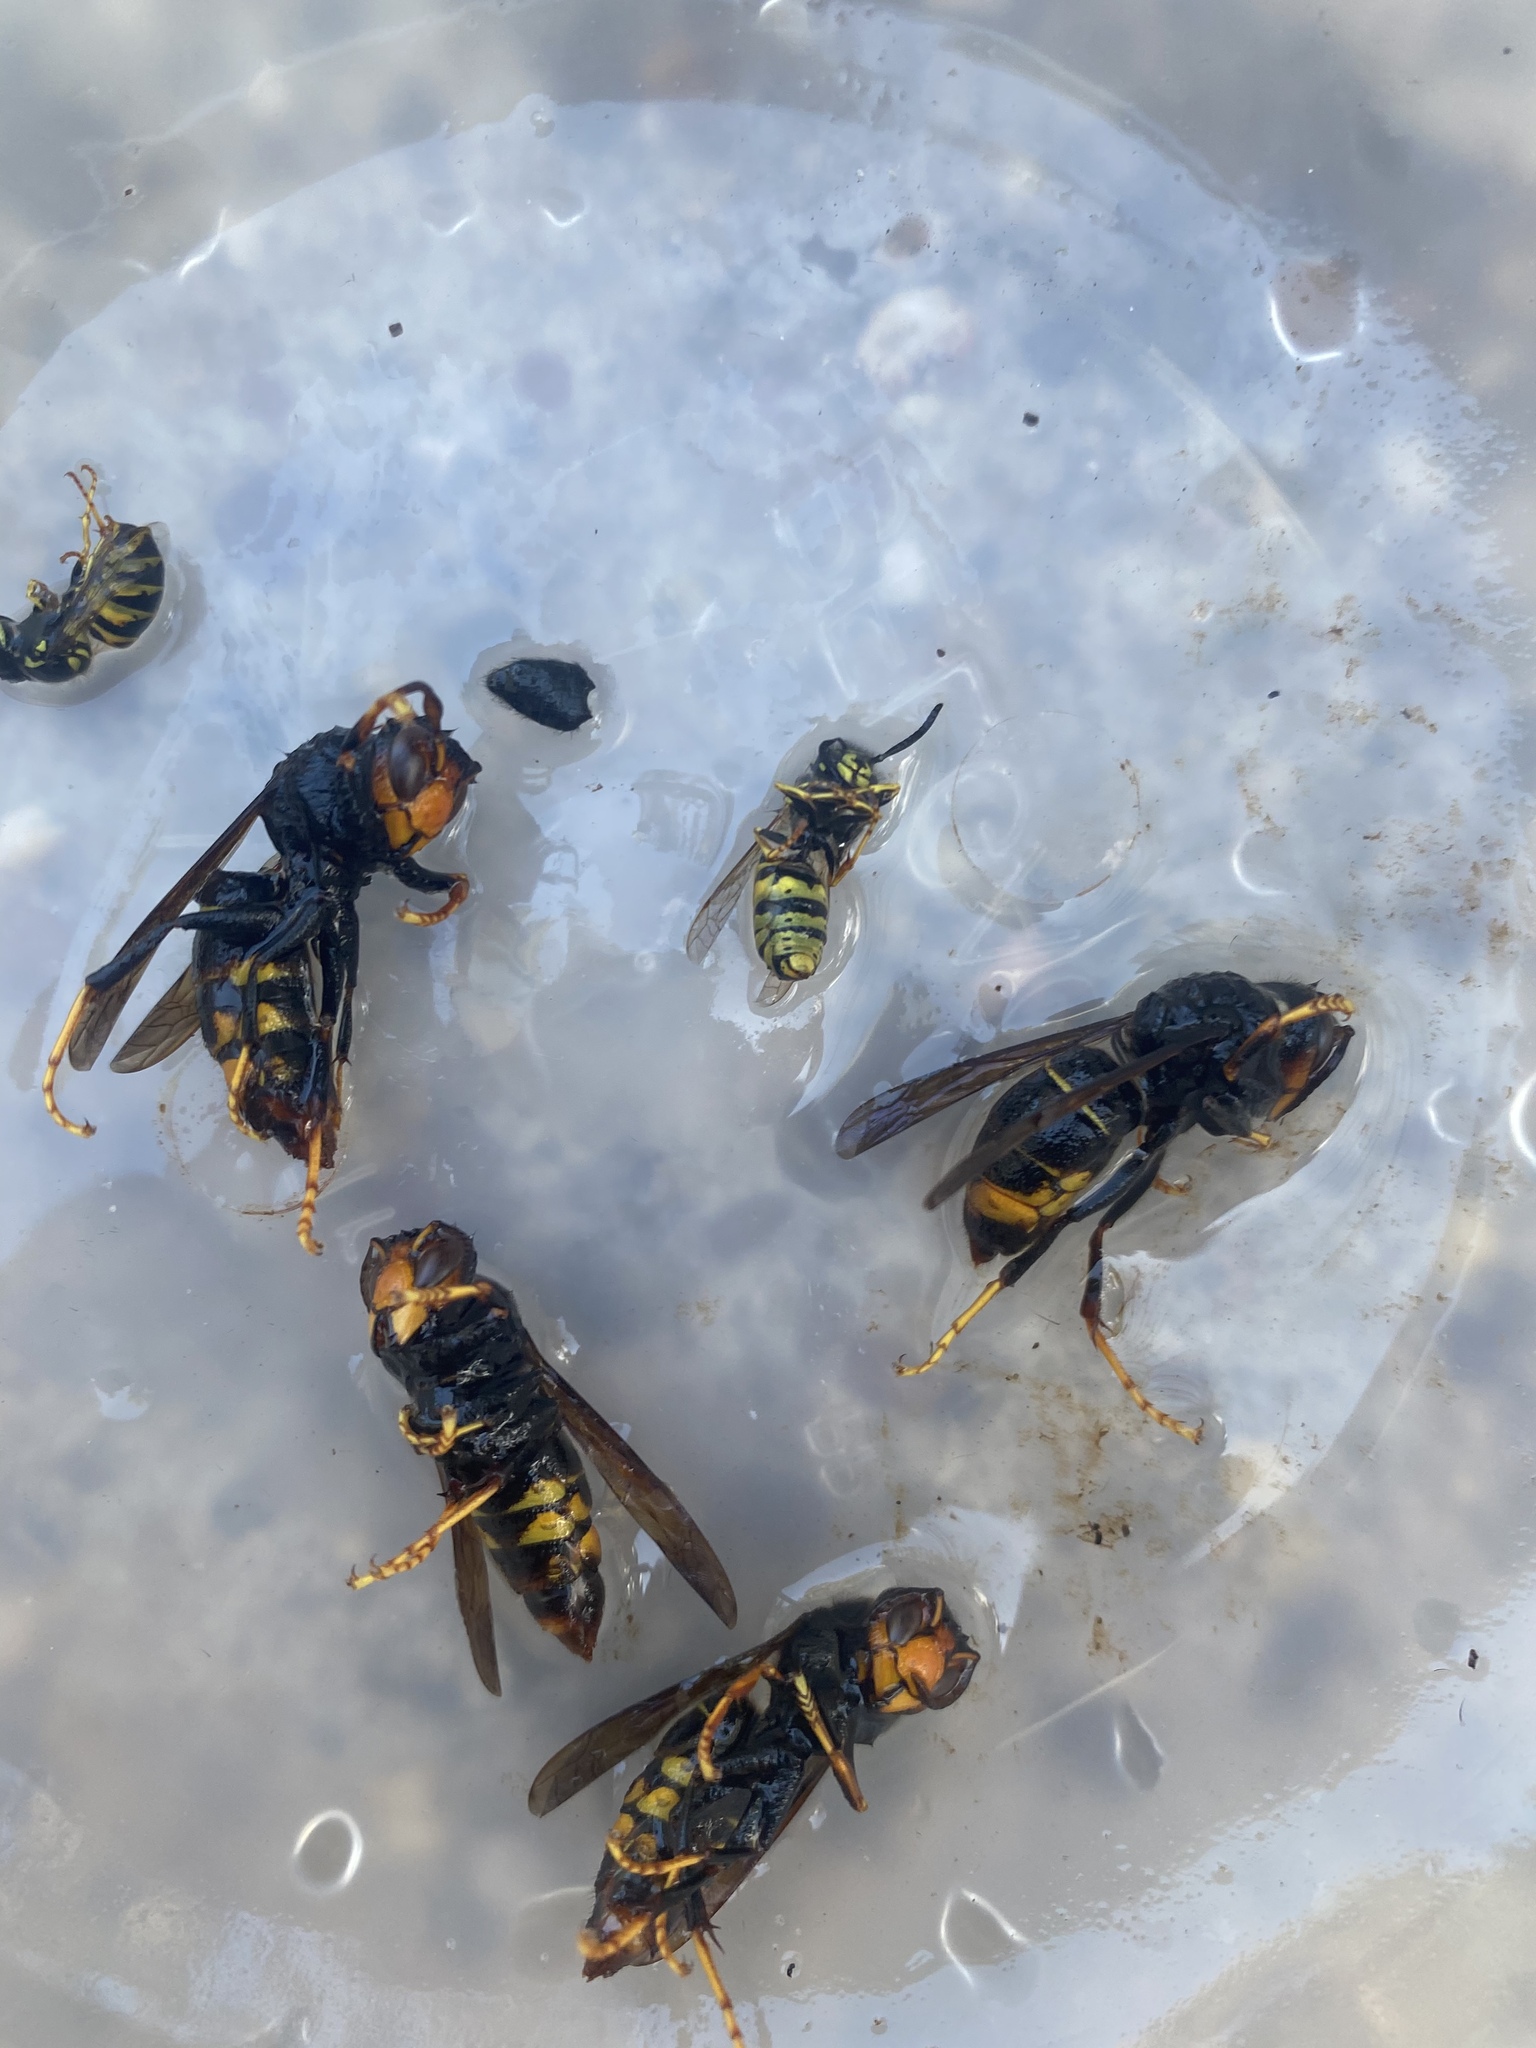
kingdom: Animalia
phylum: Arthropoda
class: Insecta
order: Hymenoptera
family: Vespidae
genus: Vespa
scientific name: Vespa velutina
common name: Asian hornet
